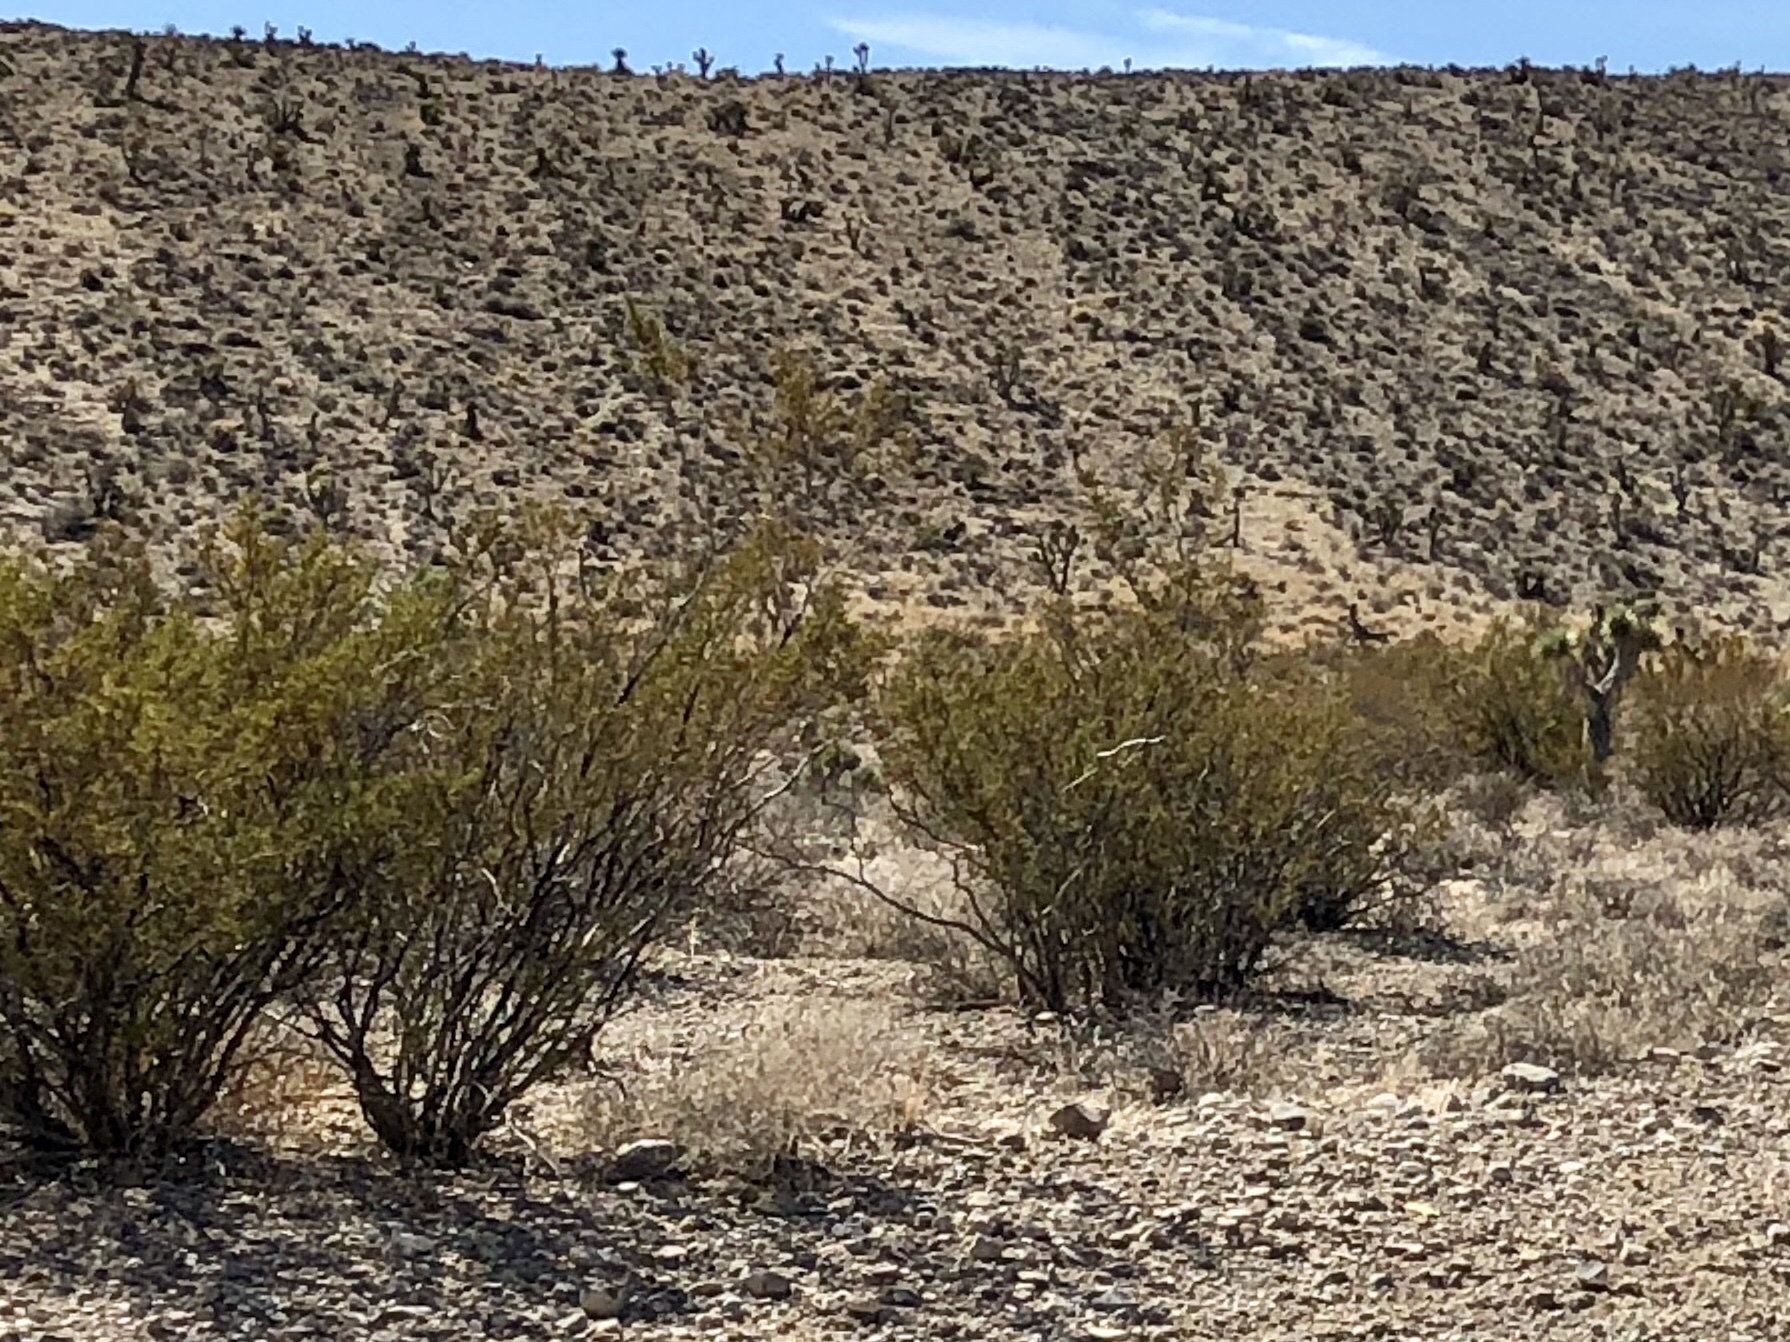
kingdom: Plantae
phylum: Tracheophyta
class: Magnoliopsida
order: Zygophyllales
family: Zygophyllaceae
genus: Larrea
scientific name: Larrea tridentata
